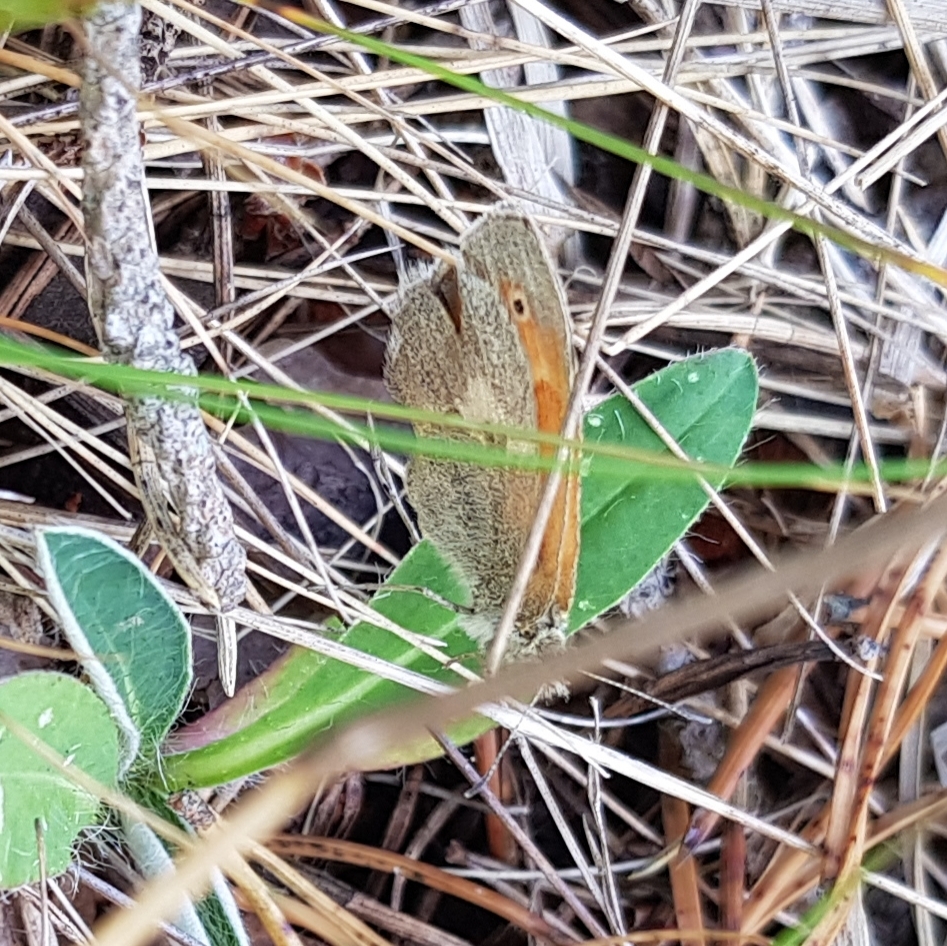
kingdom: Animalia
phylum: Arthropoda
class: Insecta
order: Lepidoptera
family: Nymphalidae
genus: Coenonympha
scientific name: Coenonympha pamphilus
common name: Small heath
